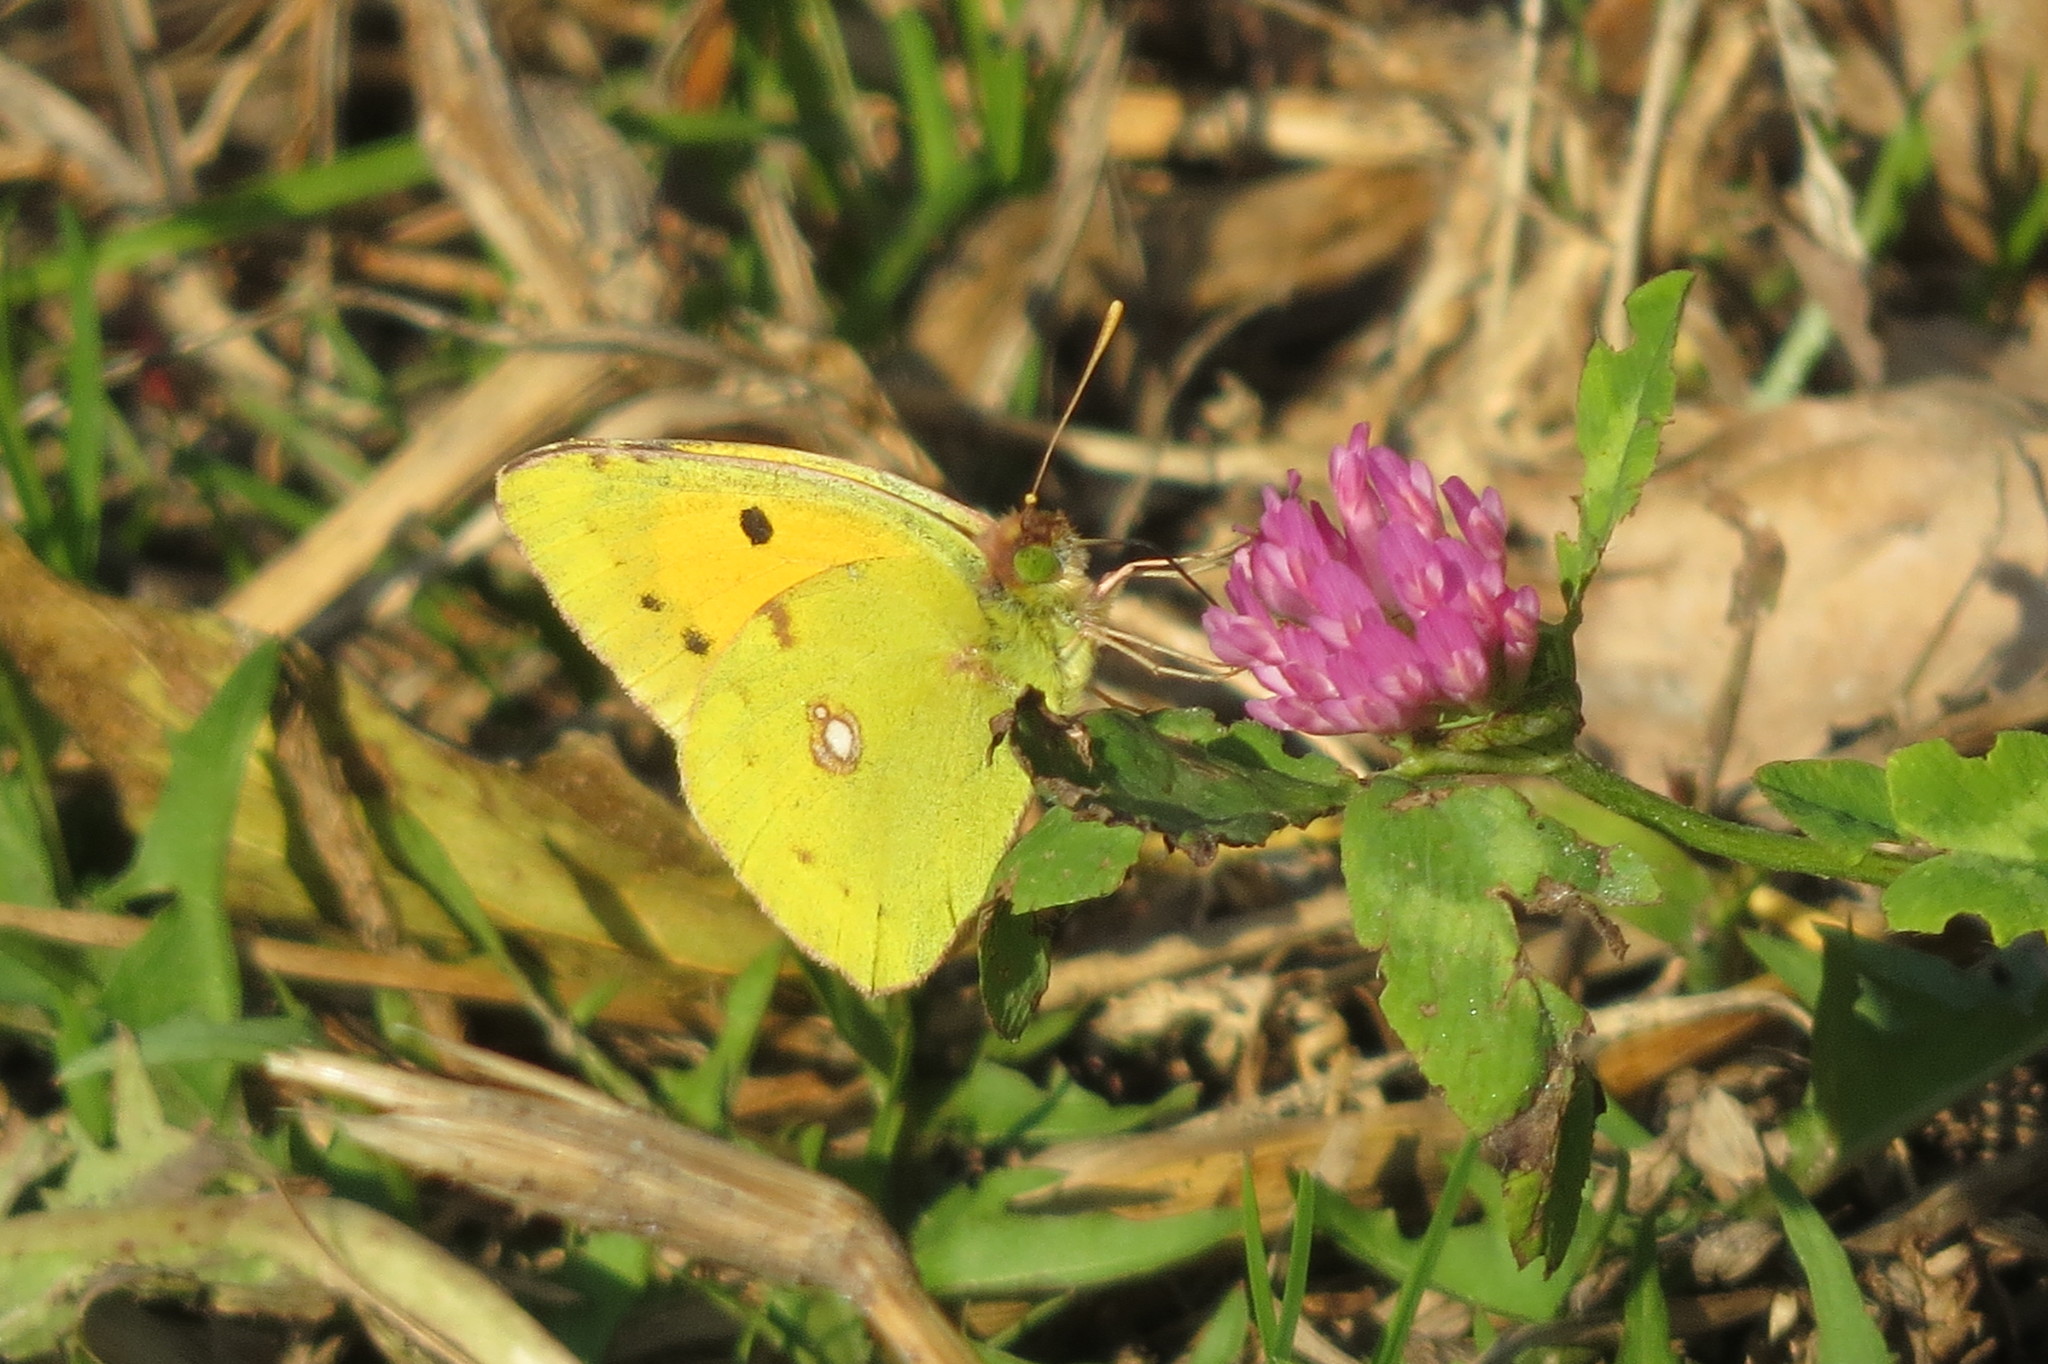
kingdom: Animalia
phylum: Arthropoda
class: Insecta
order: Lepidoptera
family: Pieridae
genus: Colias
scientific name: Colias croceus
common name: Clouded yellow
